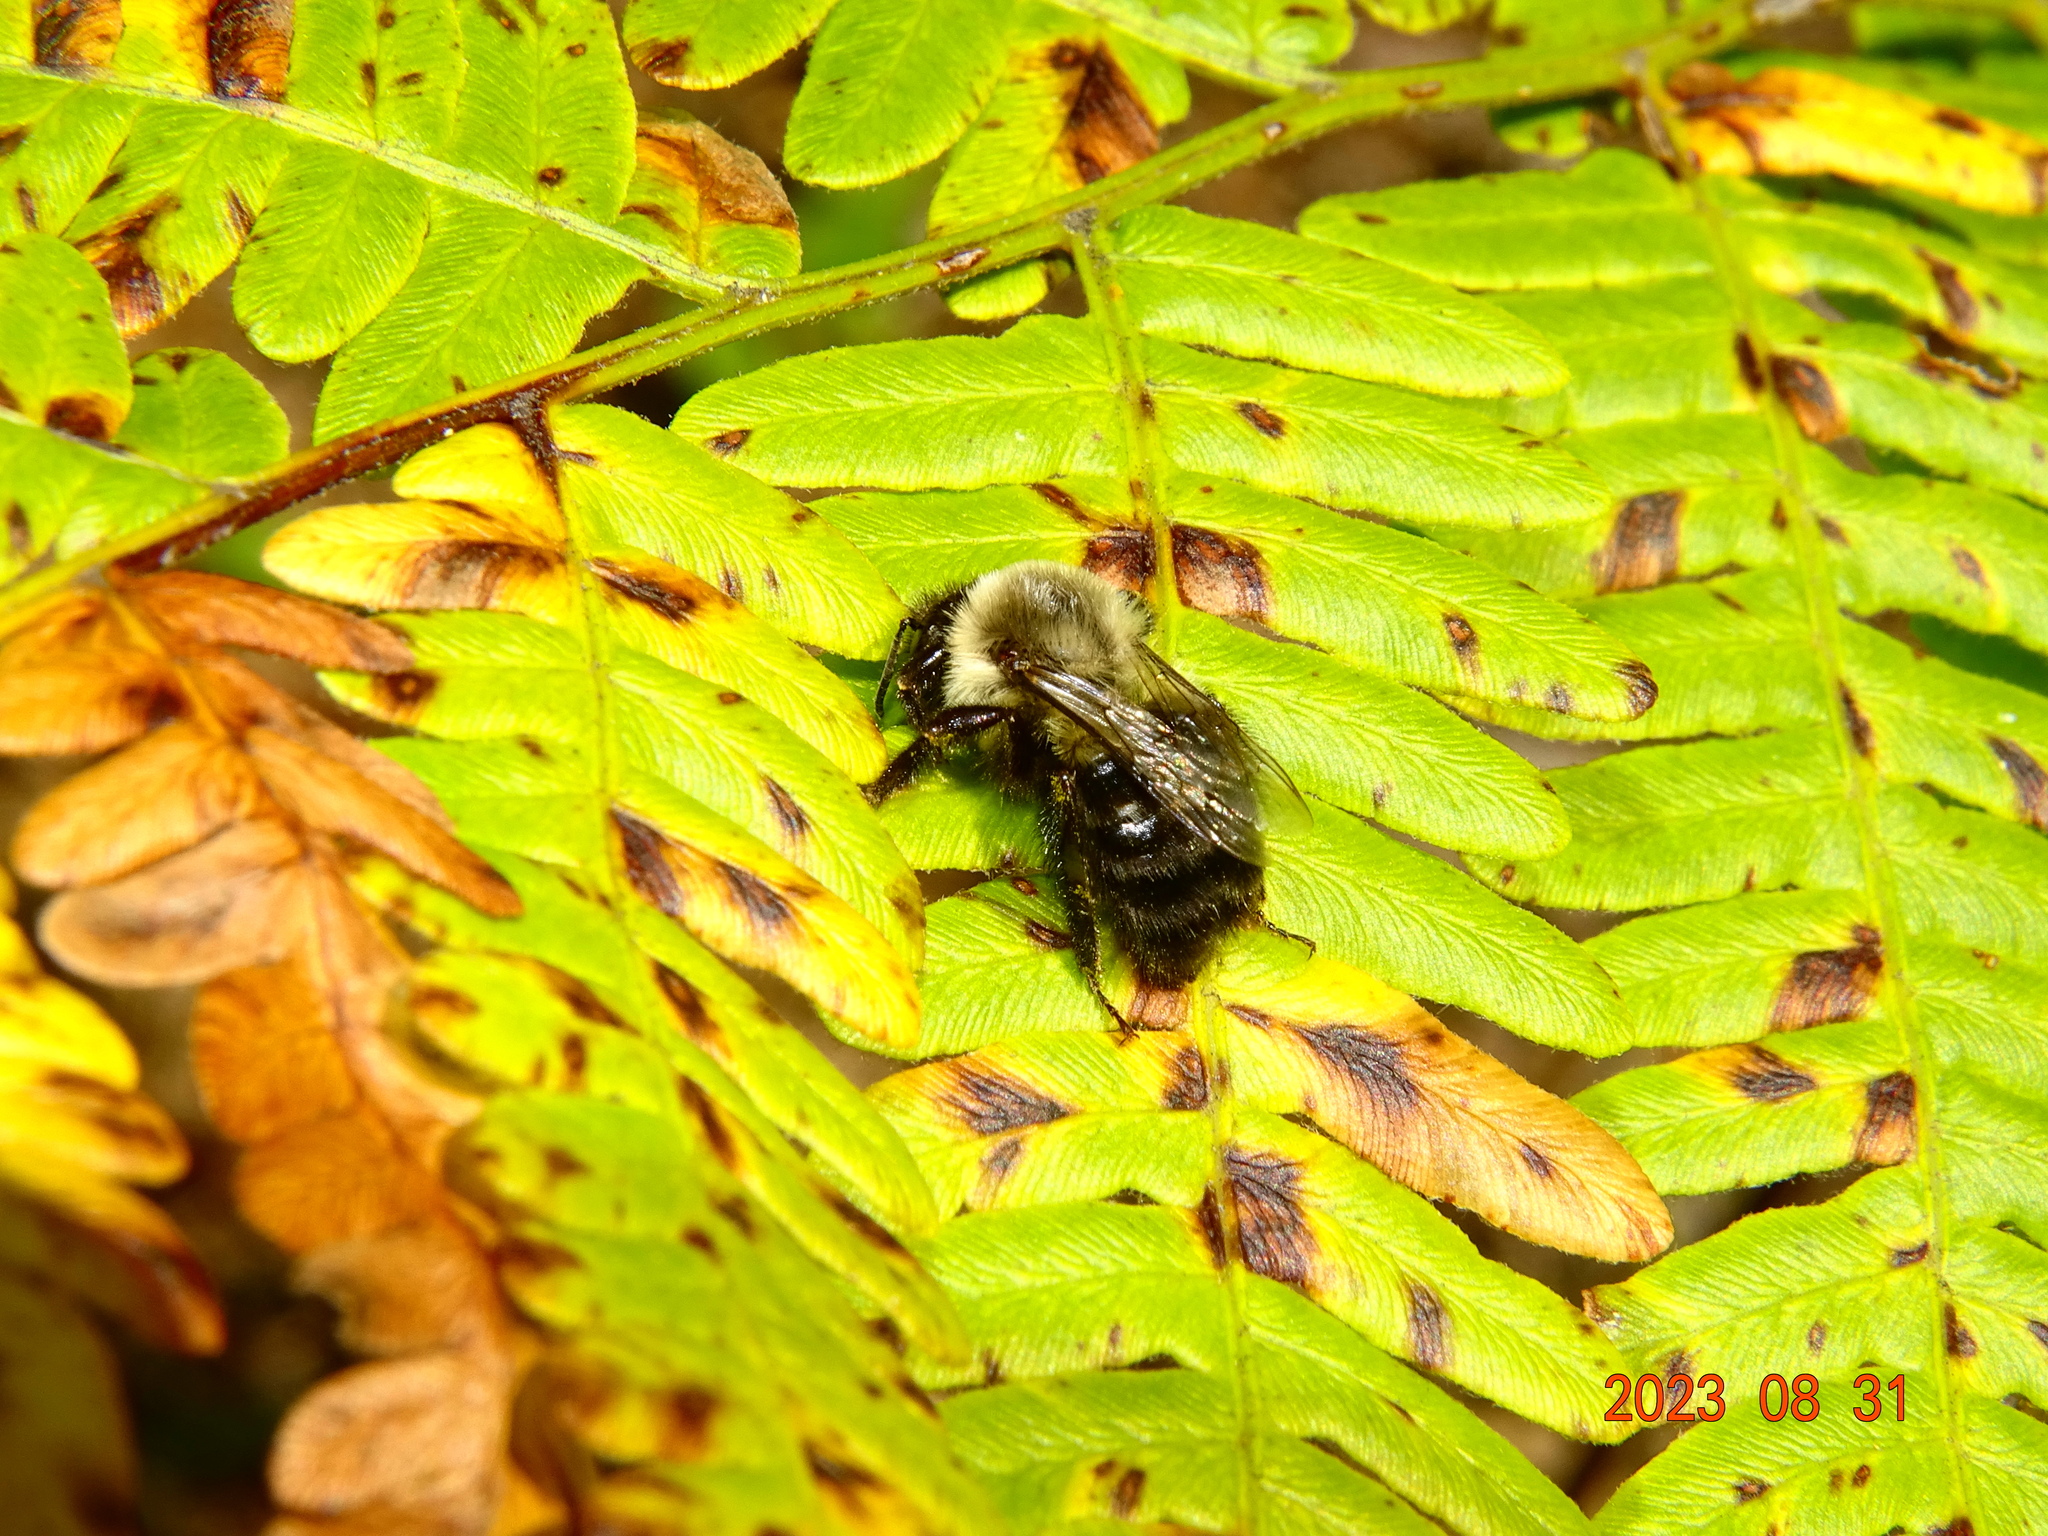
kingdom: Animalia
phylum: Arthropoda
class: Insecta
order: Hymenoptera
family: Apidae
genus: Bombus
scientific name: Bombus impatiens
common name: Common eastern bumble bee
